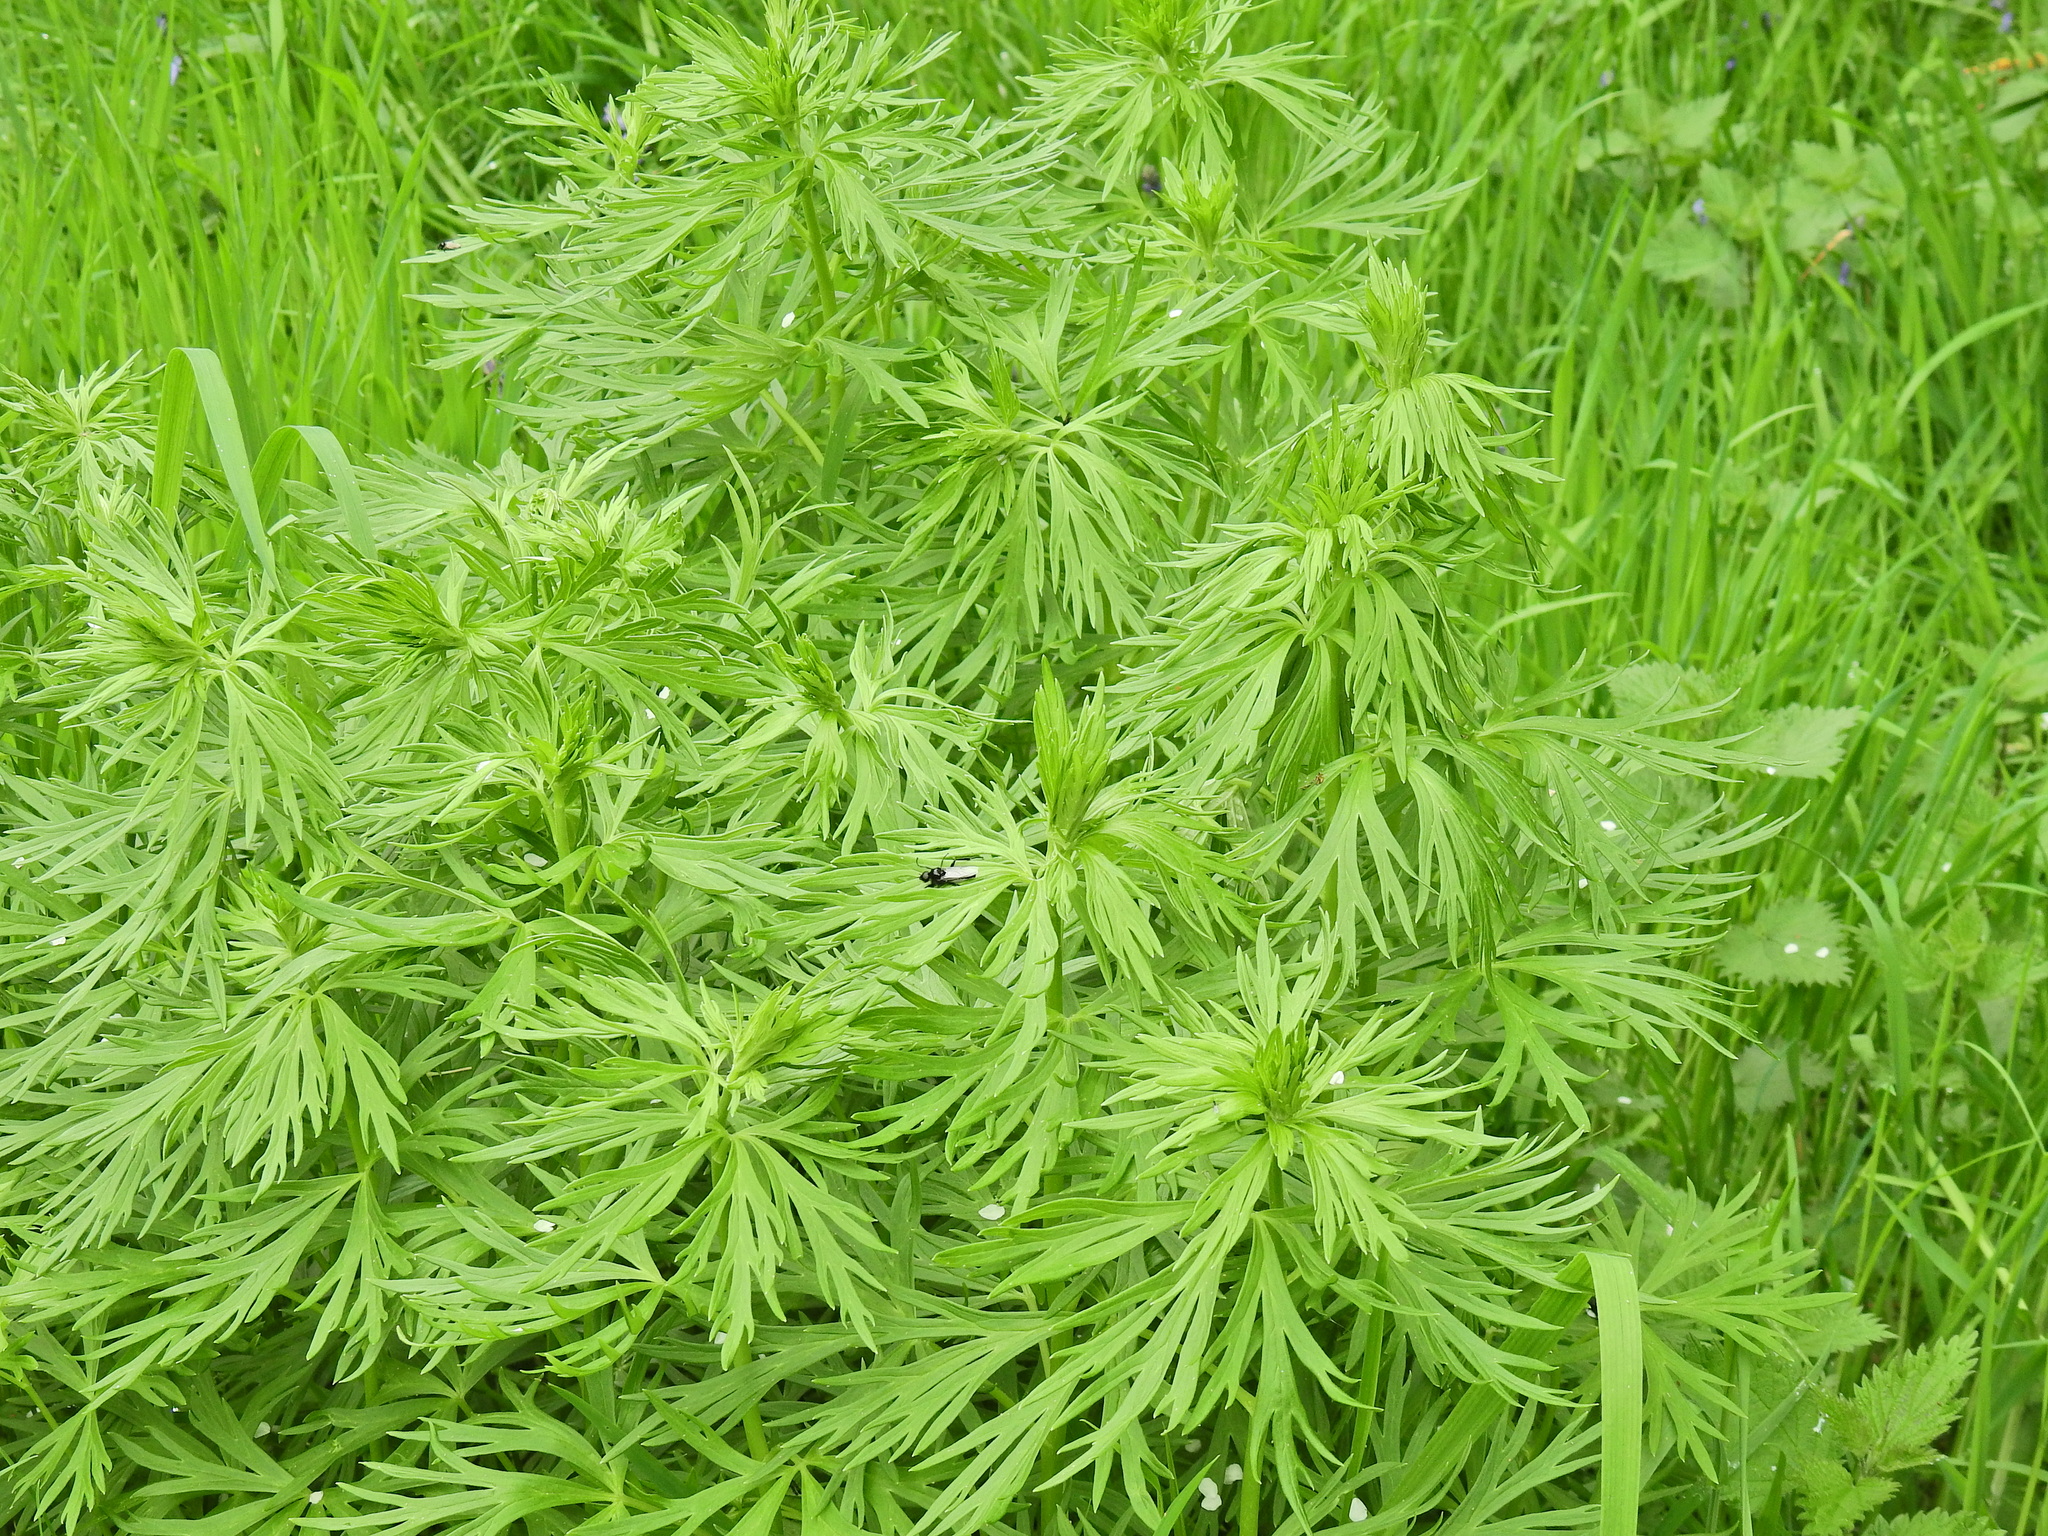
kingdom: Plantae
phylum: Tracheophyta
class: Magnoliopsida
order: Asterales
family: Asteraceae
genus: Artemisia
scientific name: Artemisia vulgaris
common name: Mugwort
